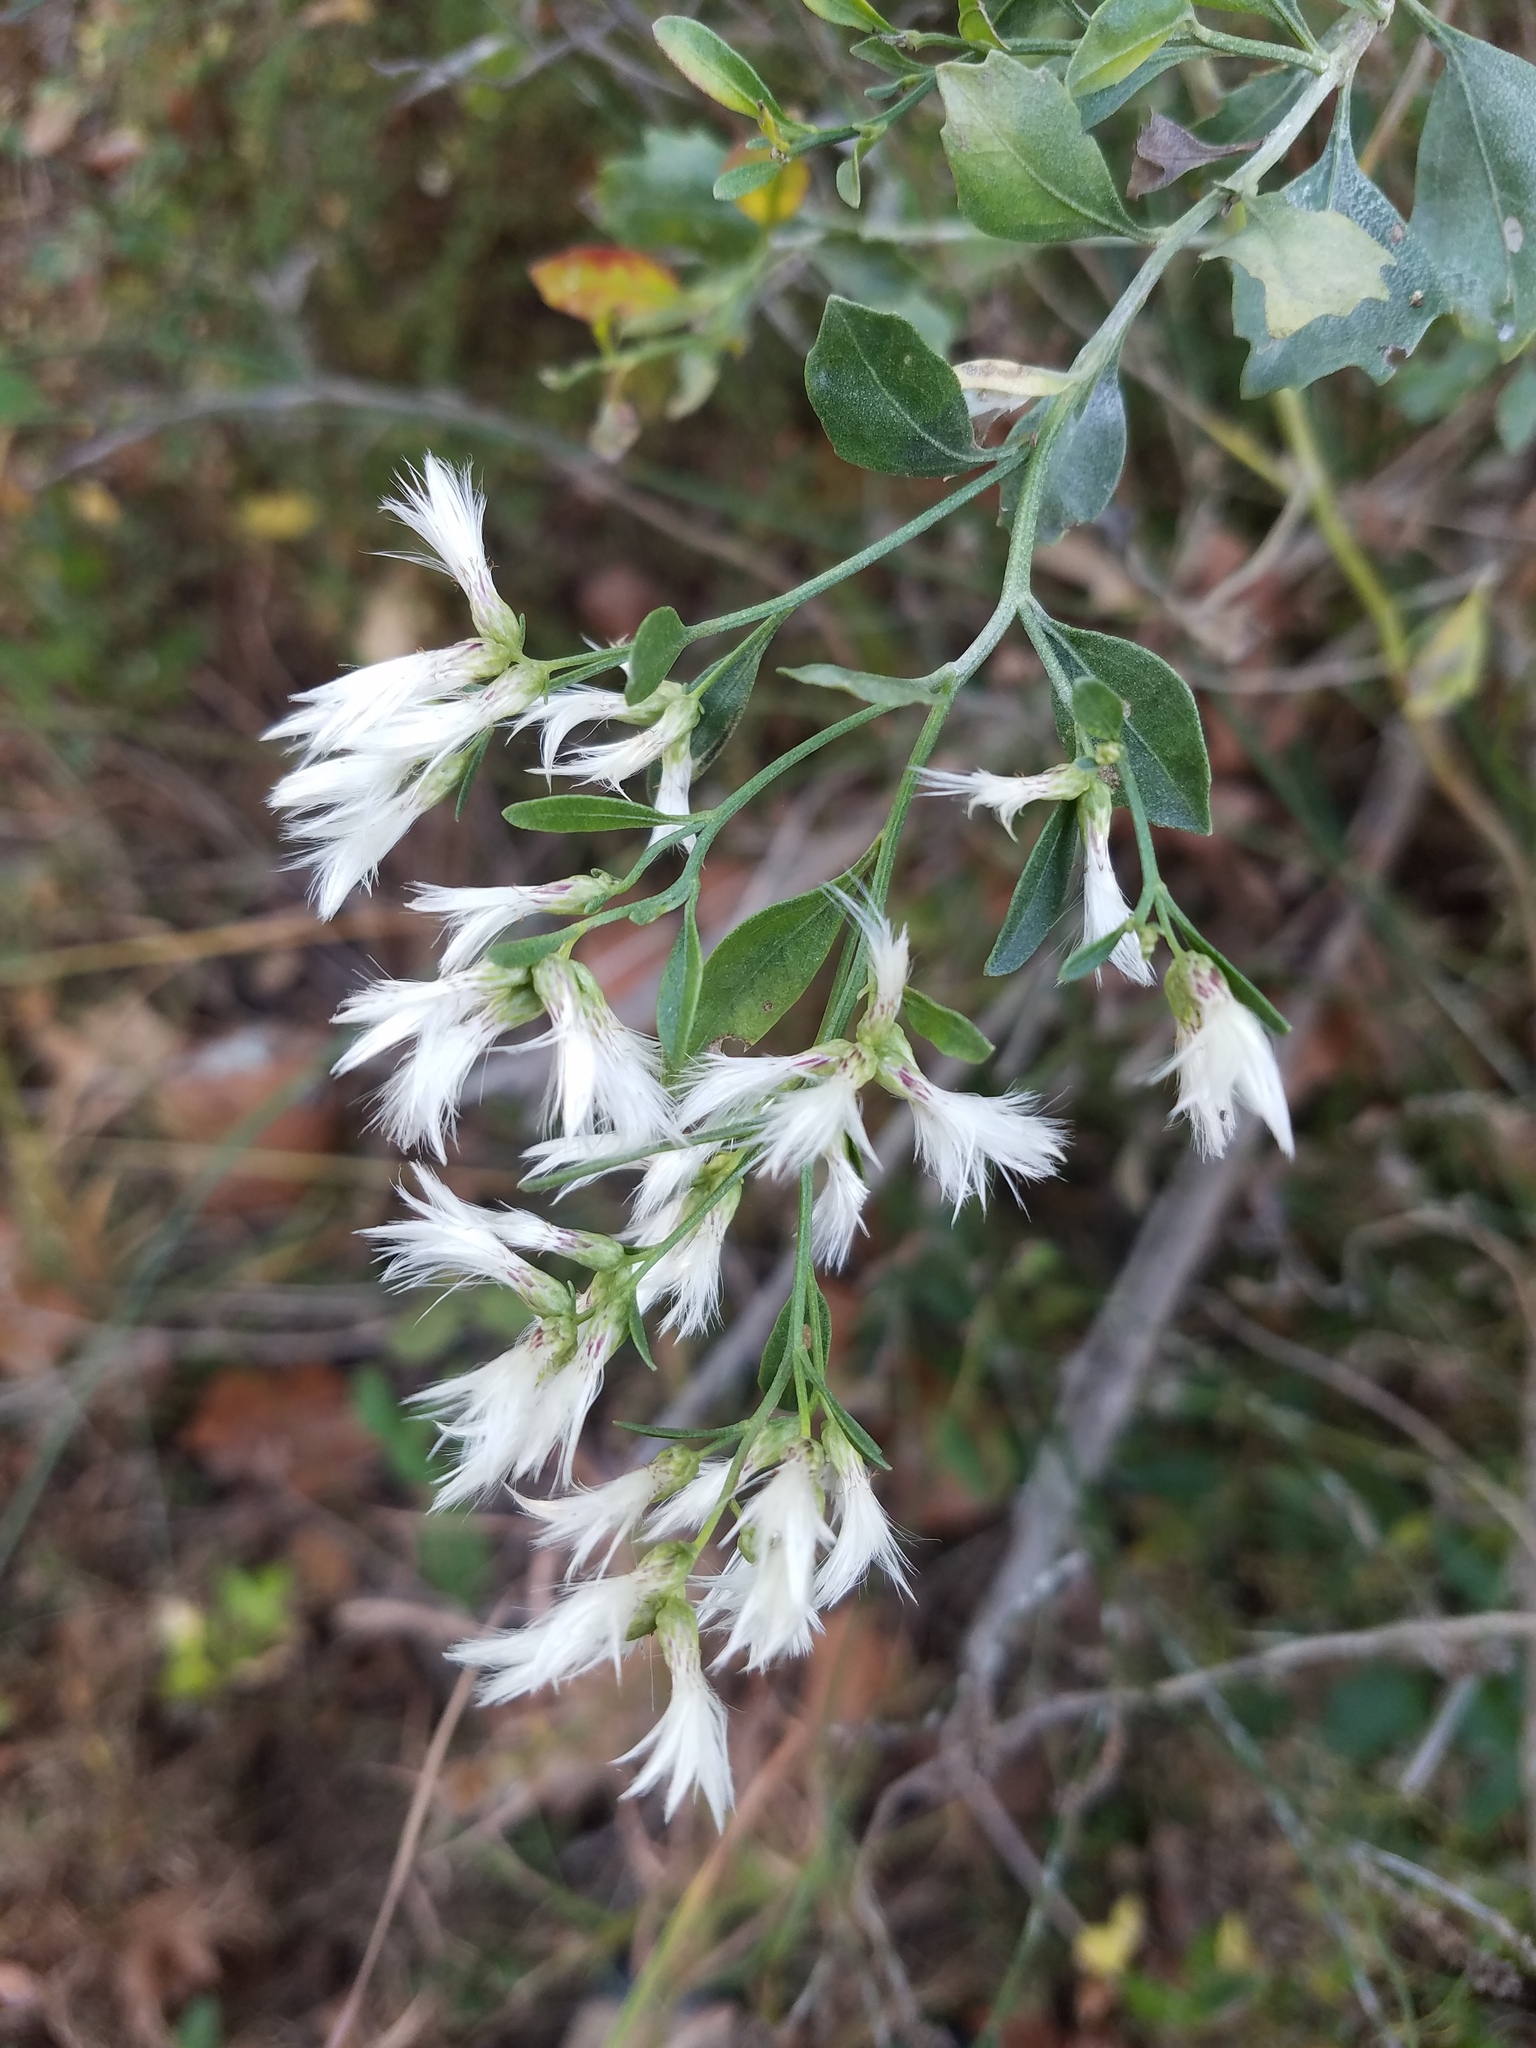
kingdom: Plantae
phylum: Tracheophyta
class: Magnoliopsida
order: Asterales
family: Asteraceae
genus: Baccharis
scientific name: Baccharis halimifolia
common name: Eastern baccharis
